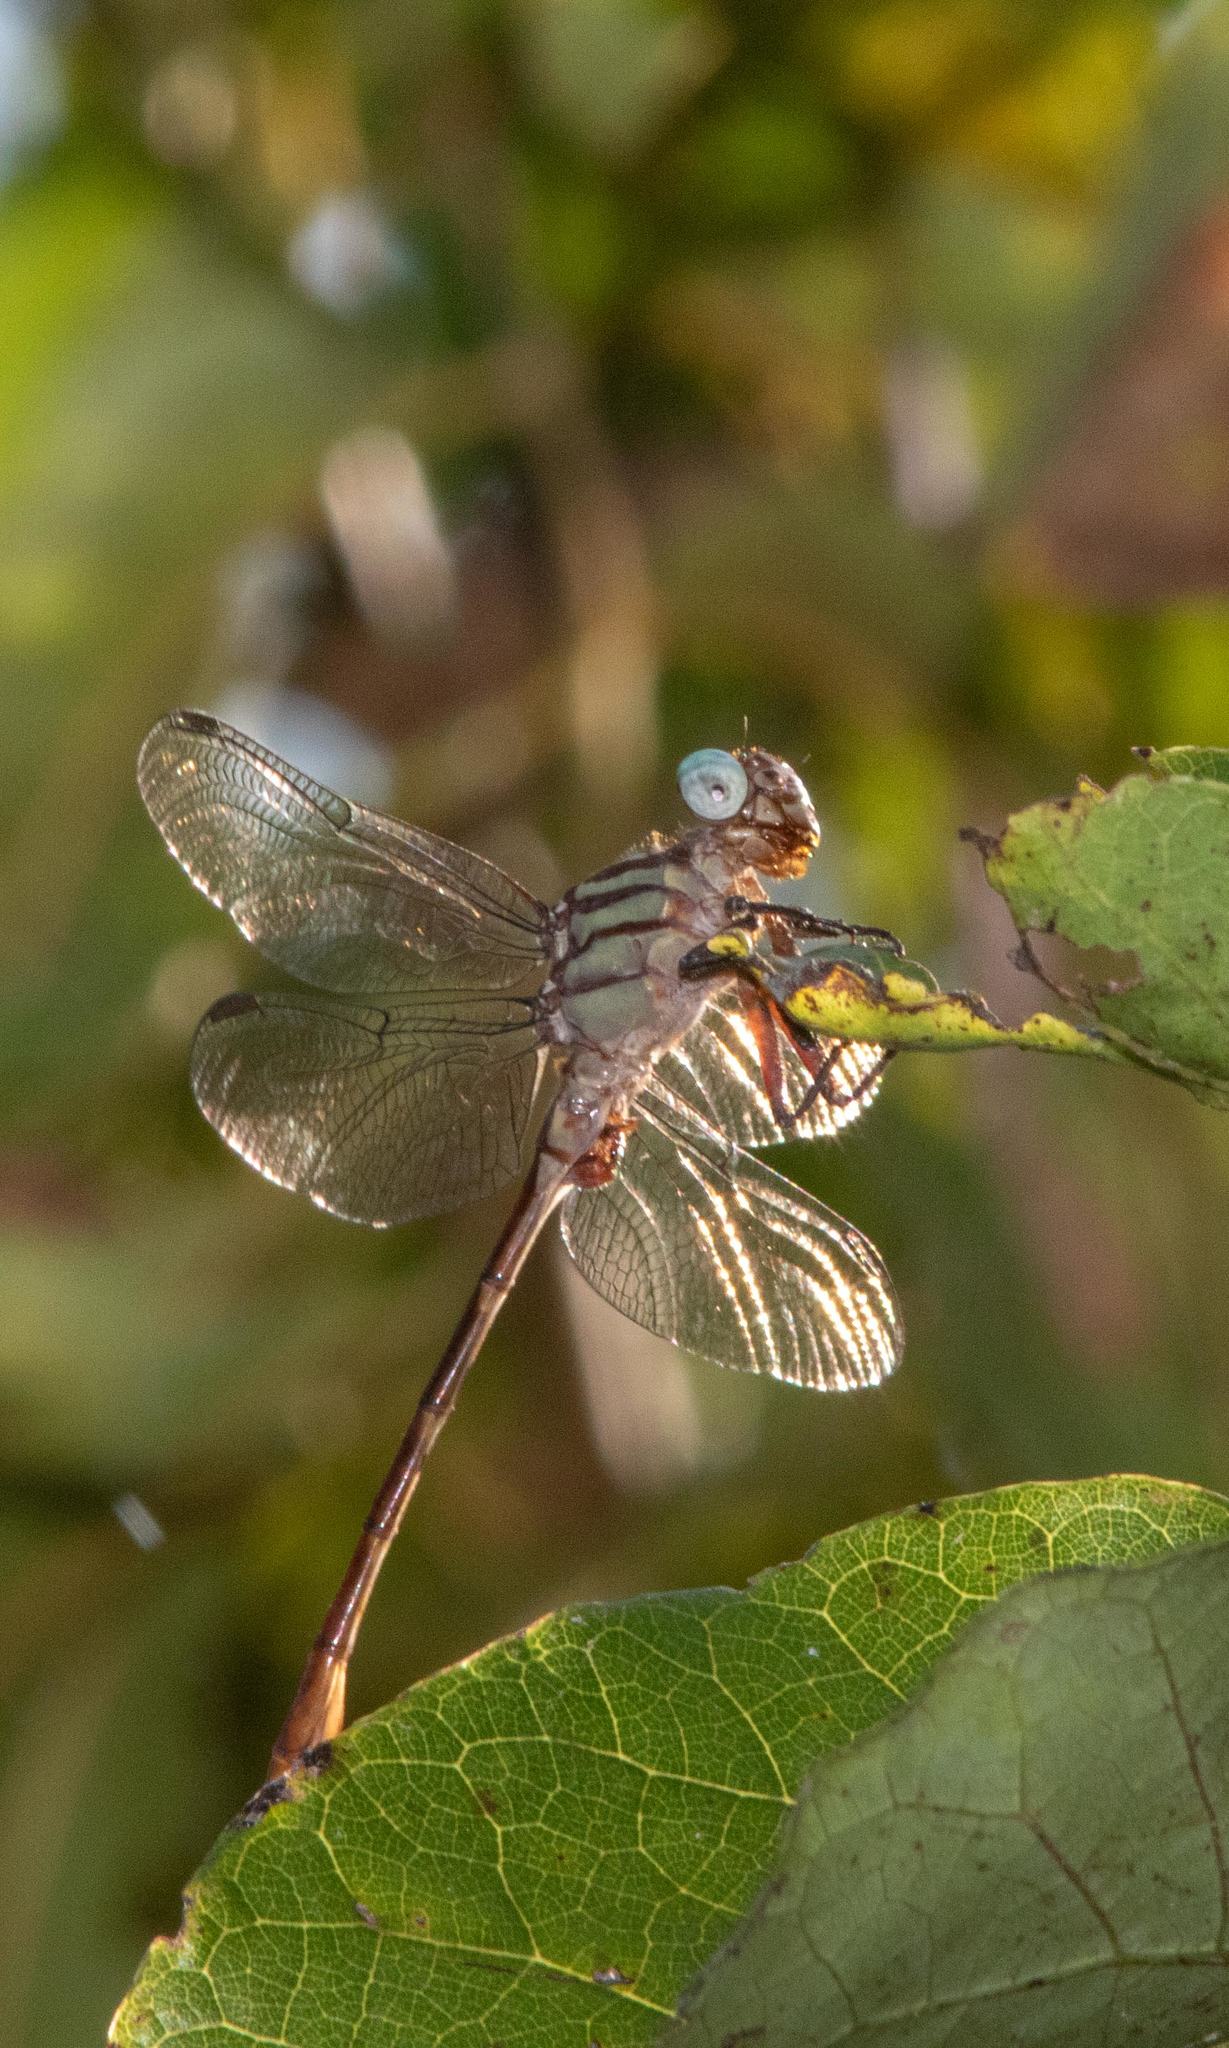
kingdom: Animalia
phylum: Arthropoda
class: Insecta
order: Odonata
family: Gomphidae
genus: Stylurus
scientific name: Stylurus plagiatus
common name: Russet-tipped clubtail
